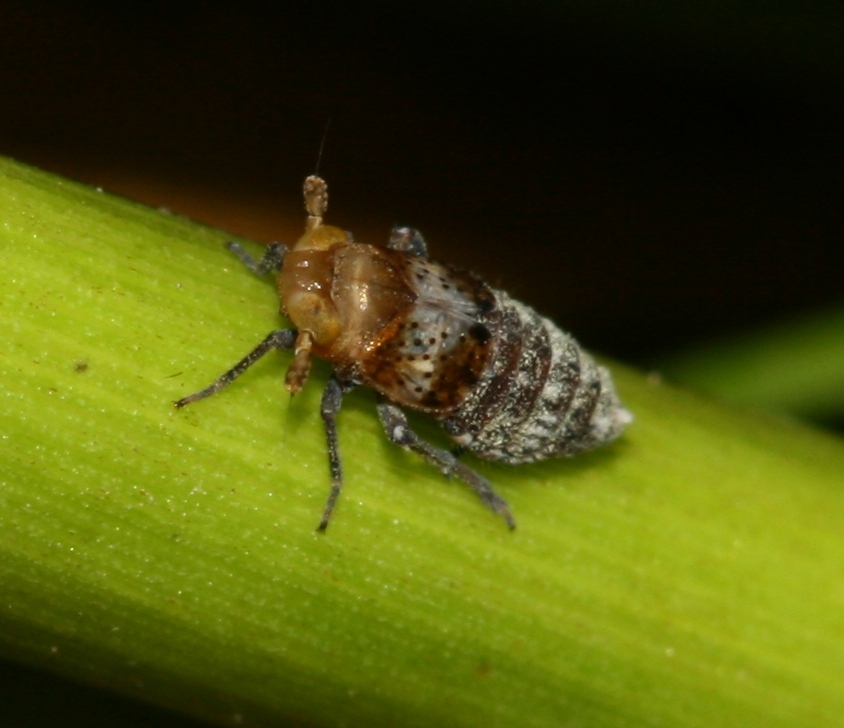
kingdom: Animalia
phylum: Arthropoda
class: Insecta
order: Hemiptera
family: Delphacidae
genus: Conomelus
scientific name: Conomelus anceps
